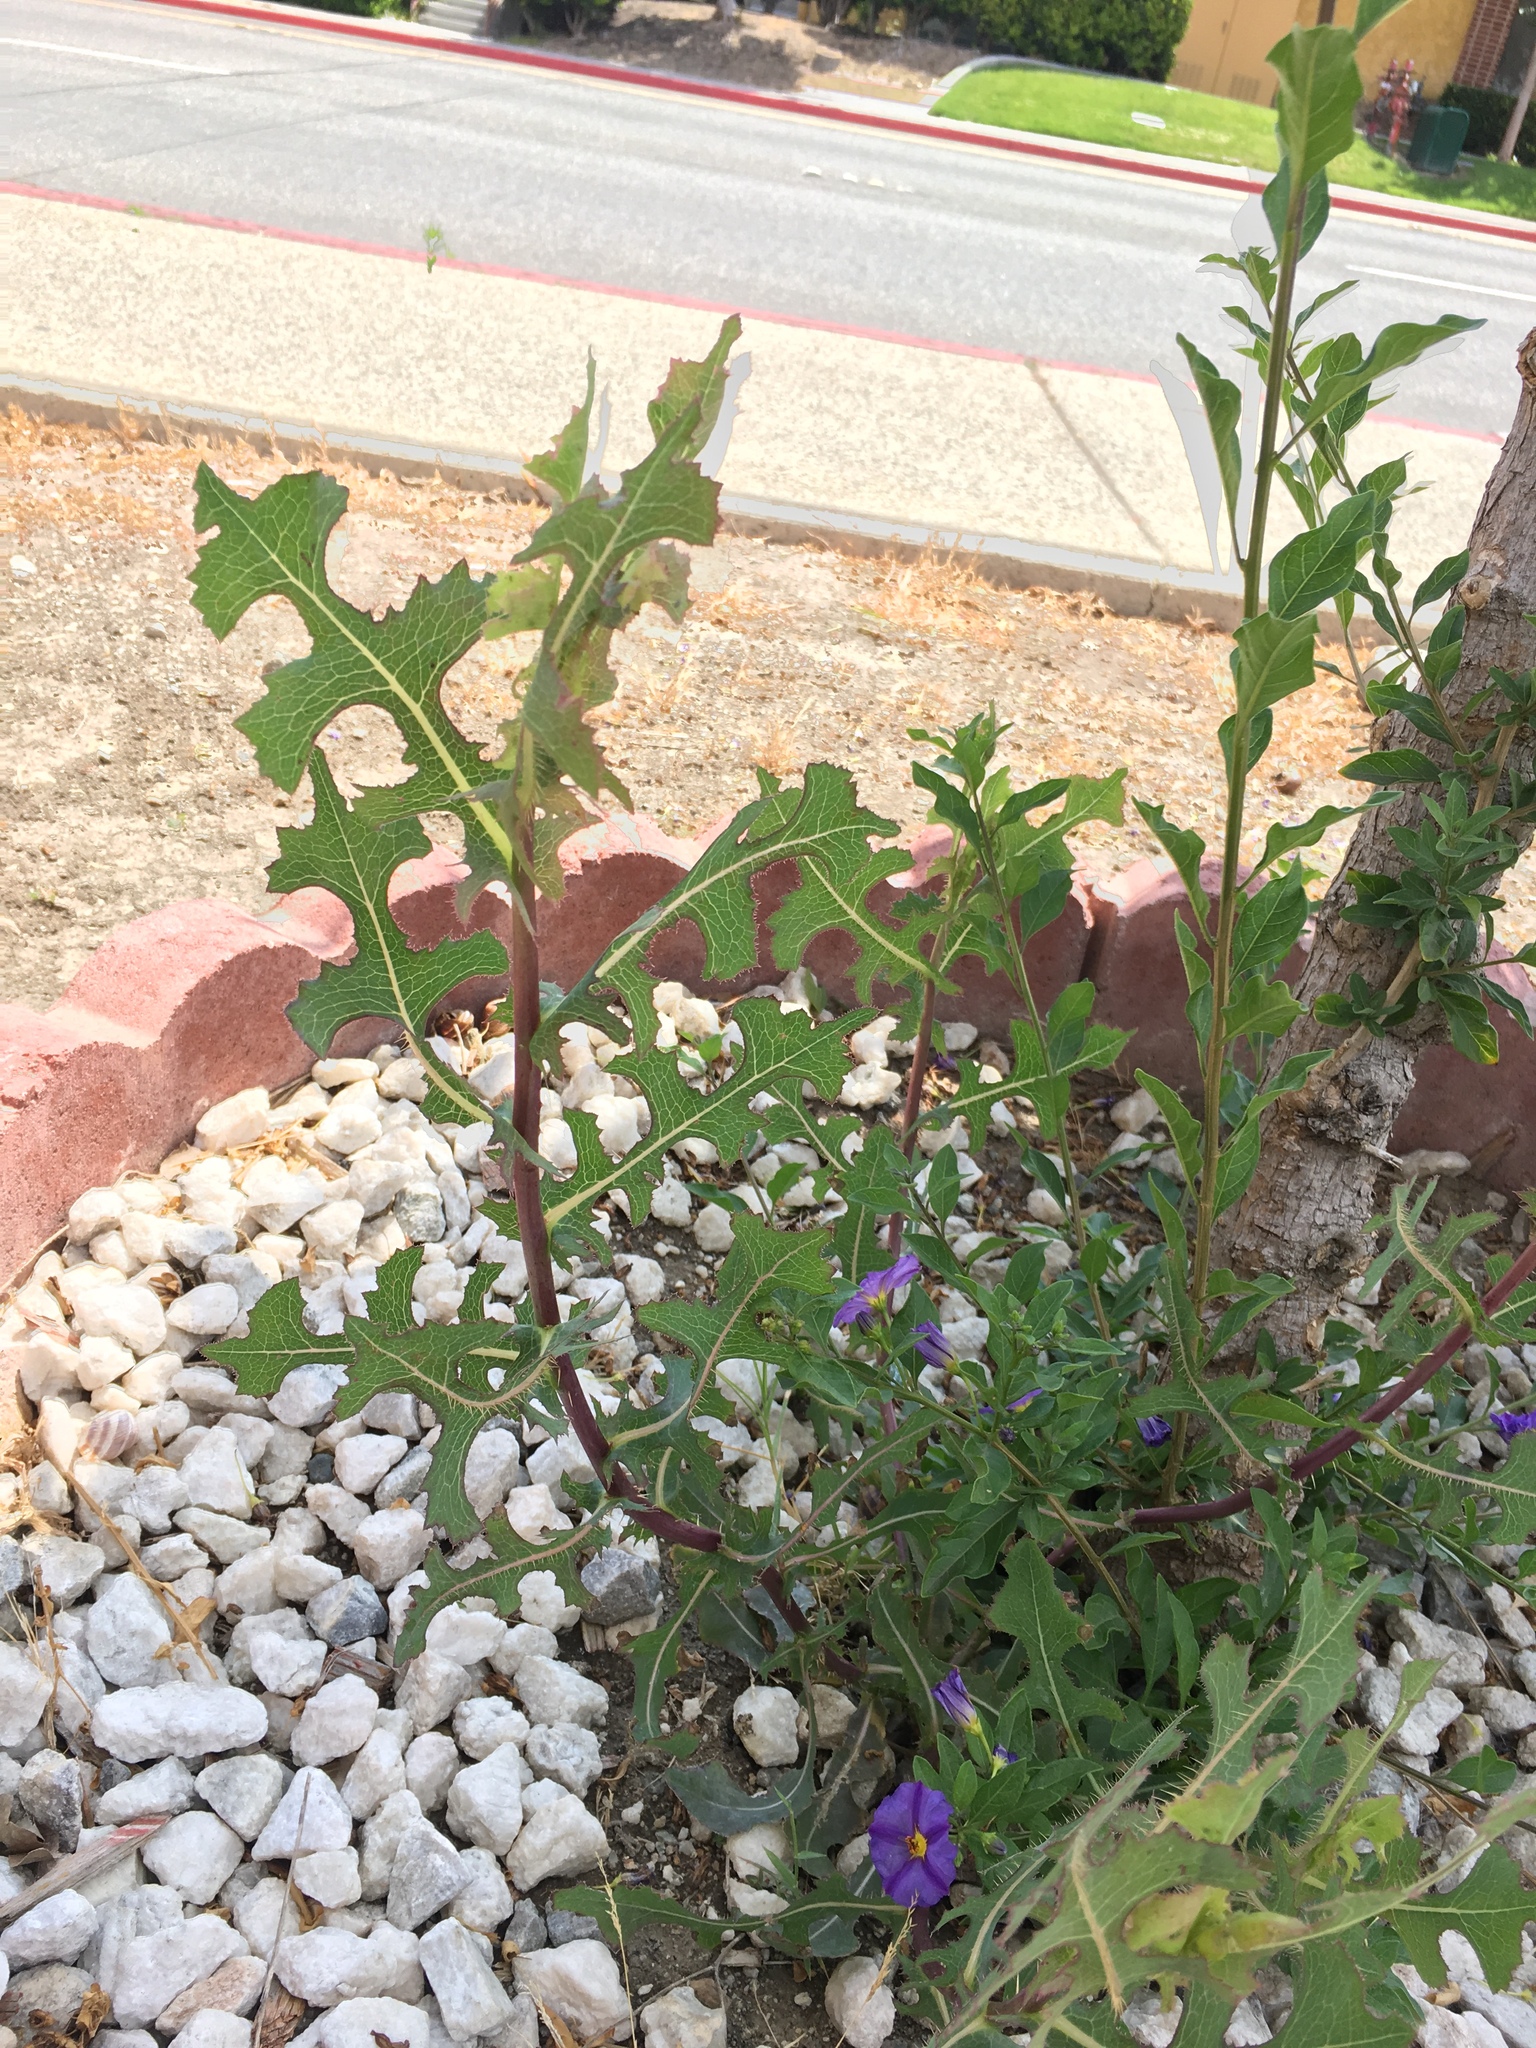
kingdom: Plantae
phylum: Tracheophyta
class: Magnoliopsida
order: Asterales
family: Asteraceae
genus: Lactuca
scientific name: Lactuca serriola
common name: Prickly lettuce
